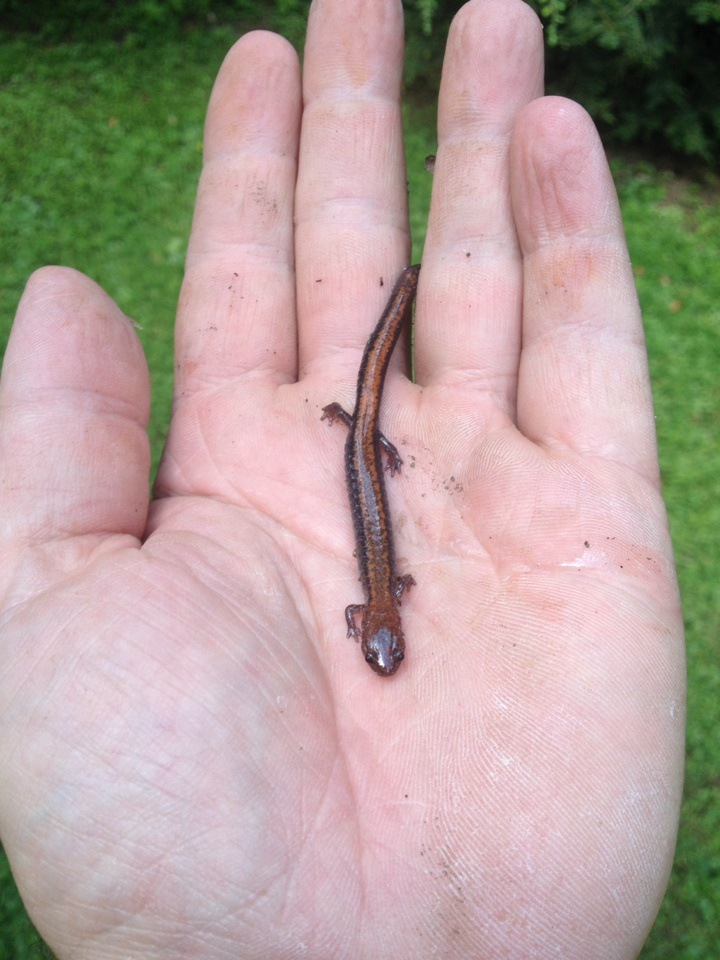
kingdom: Animalia
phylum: Chordata
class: Amphibia
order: Caudata
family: Plethodontidae
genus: Plethodon
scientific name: Plethodon cinereus
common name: Redback salamander
